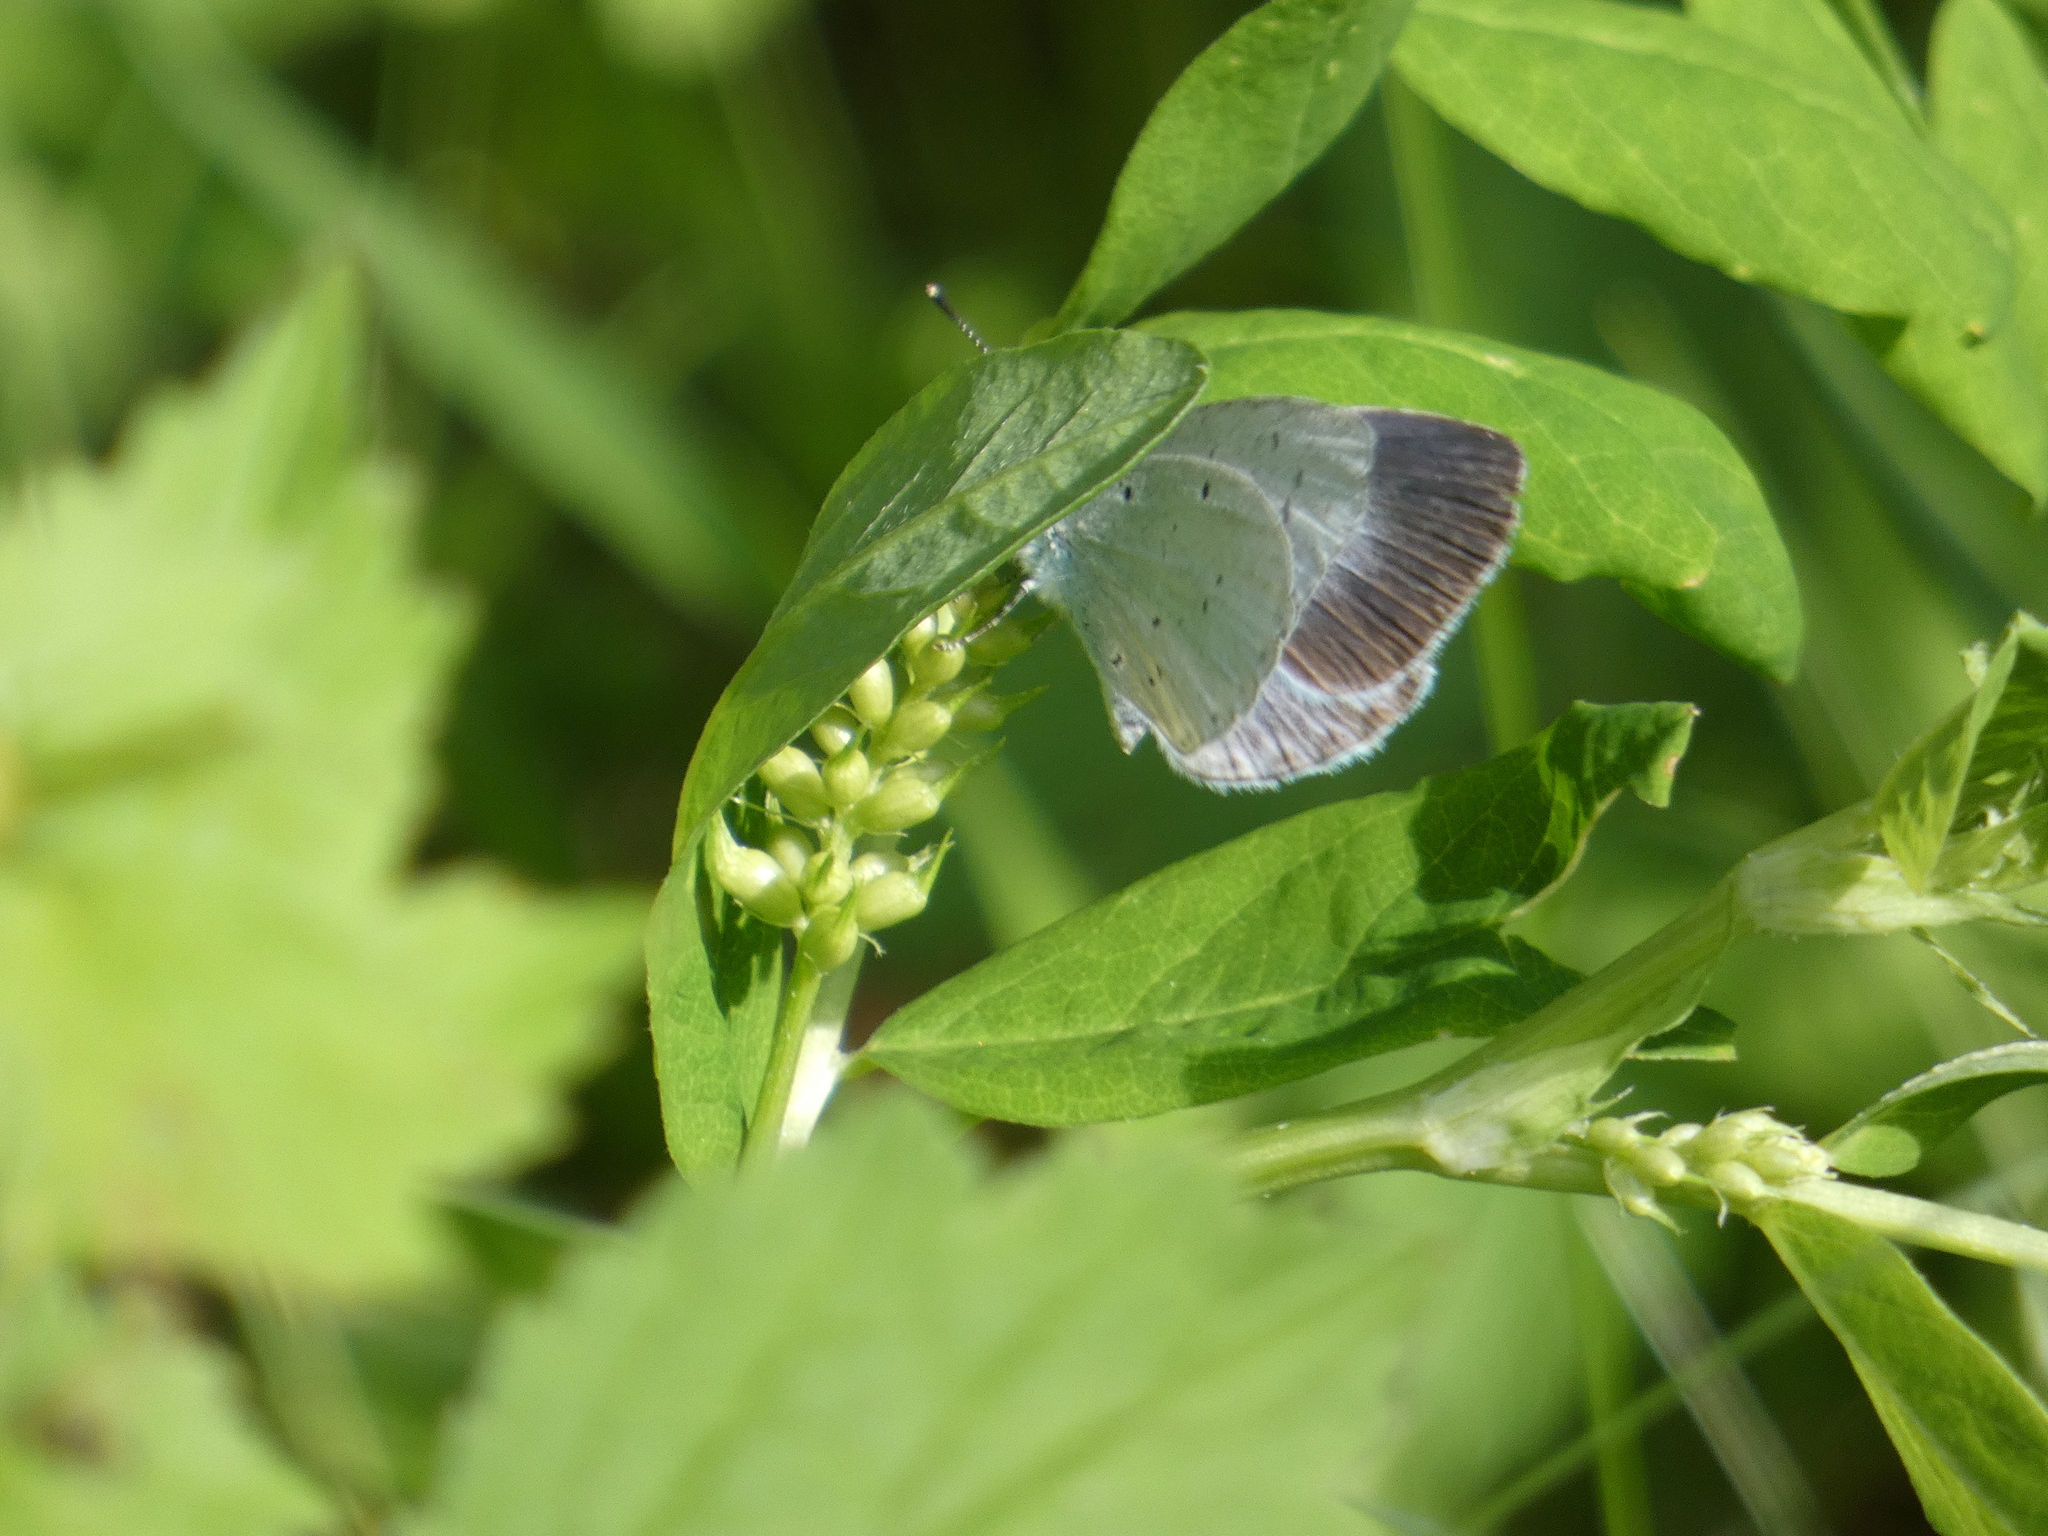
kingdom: Animalia
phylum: Arthropoda
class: Insecta
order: Lepidoptera
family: Lycaenidae
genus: Celastrina
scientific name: Celastrina argiolus
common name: Holly blue
